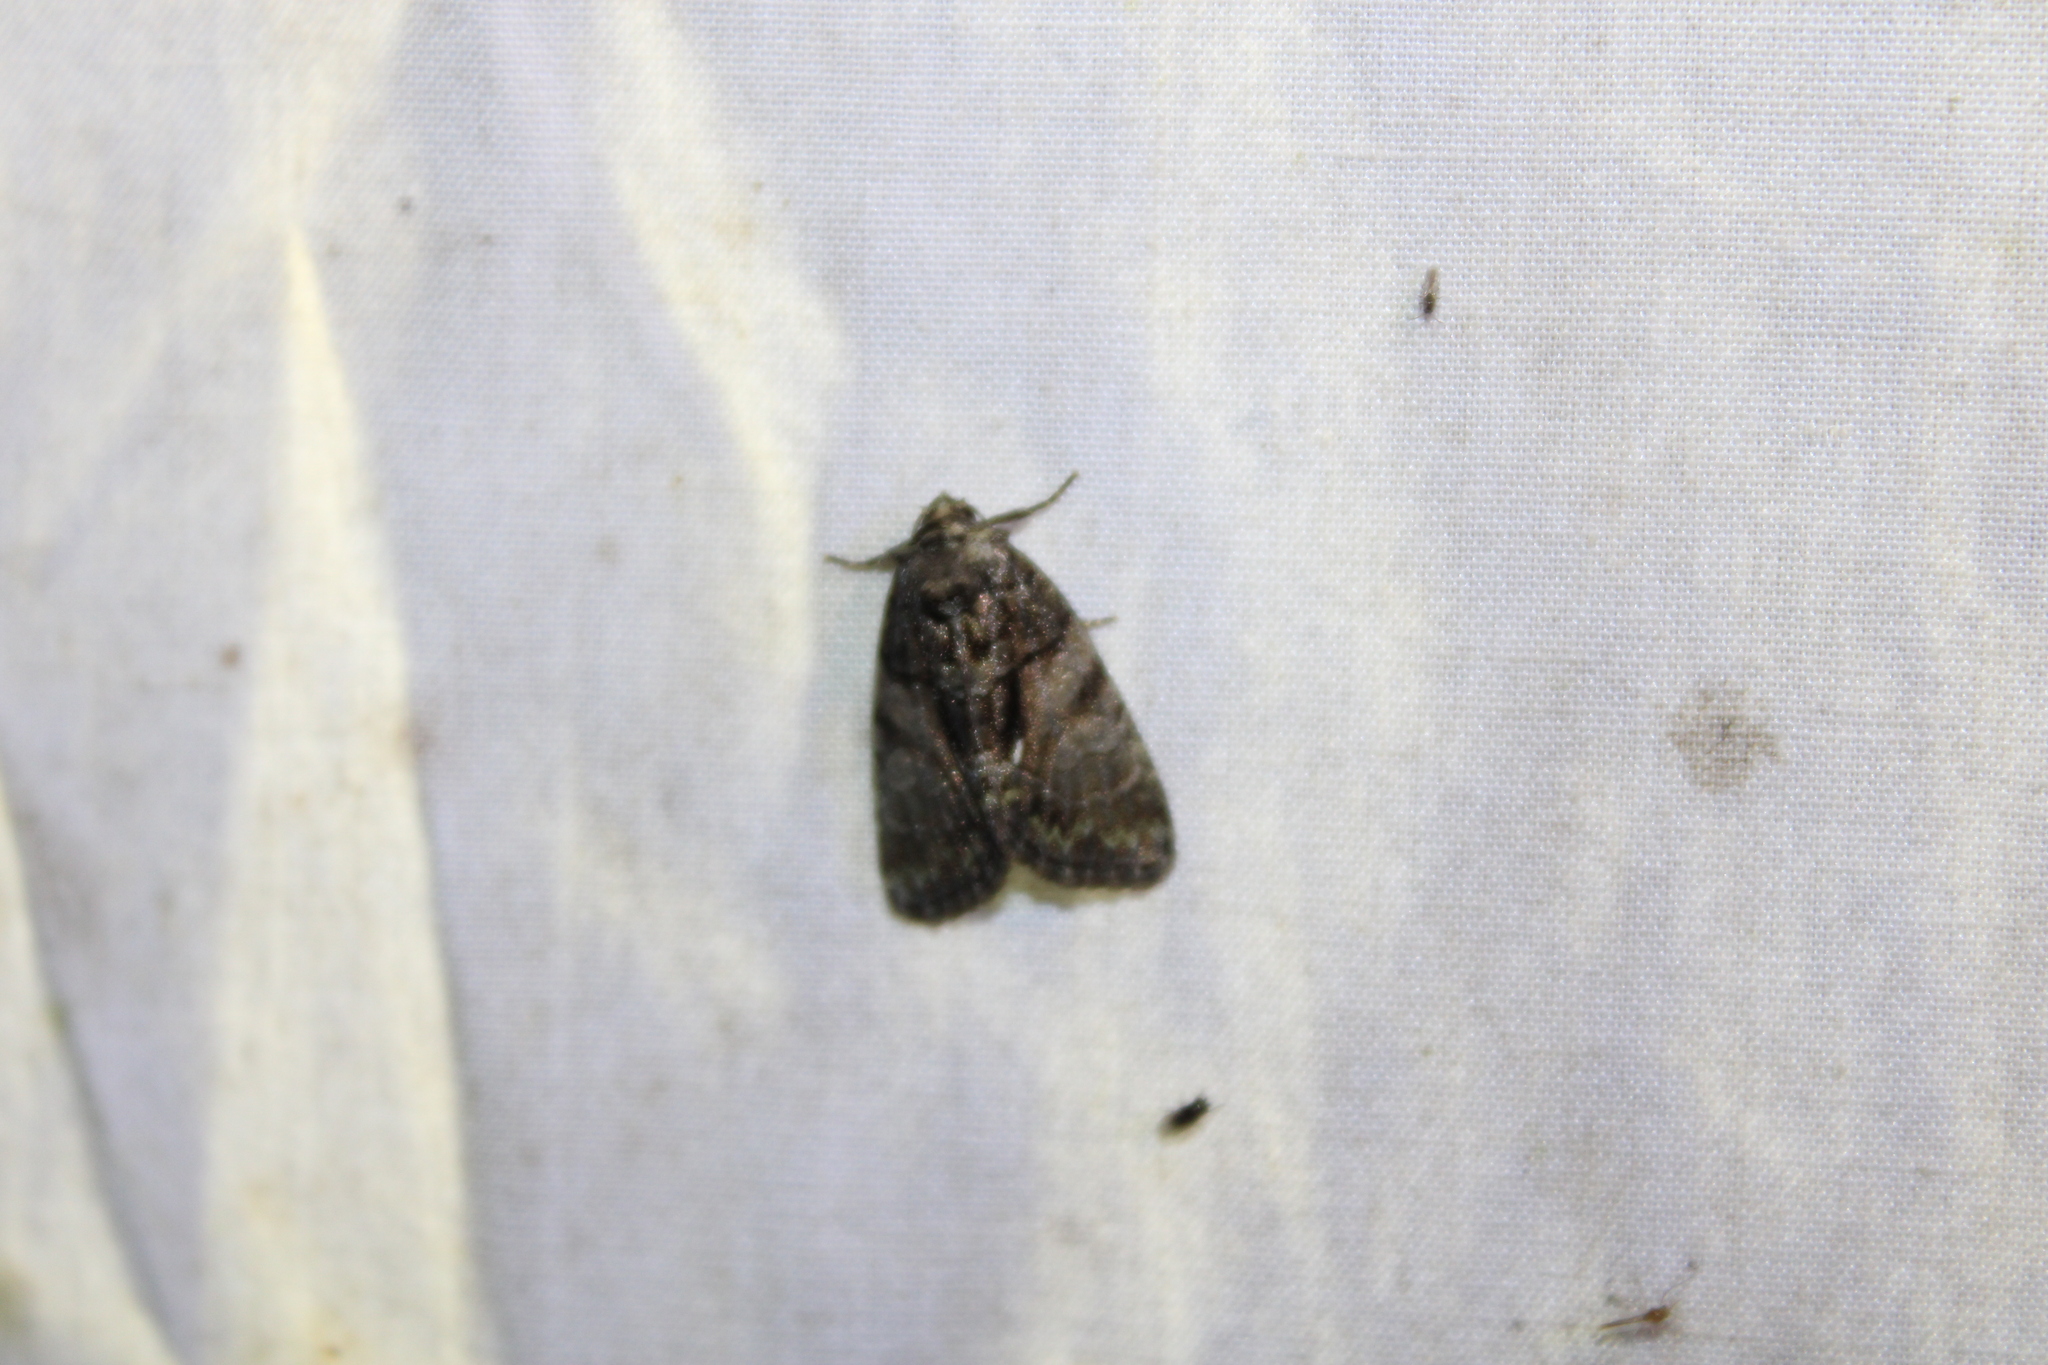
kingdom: Animalia
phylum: Arthropoda
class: Insecta
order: Lepidoptera
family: Noctuidae
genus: Chytonix
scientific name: Chytonix palliatricula
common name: Cloaked marvel
